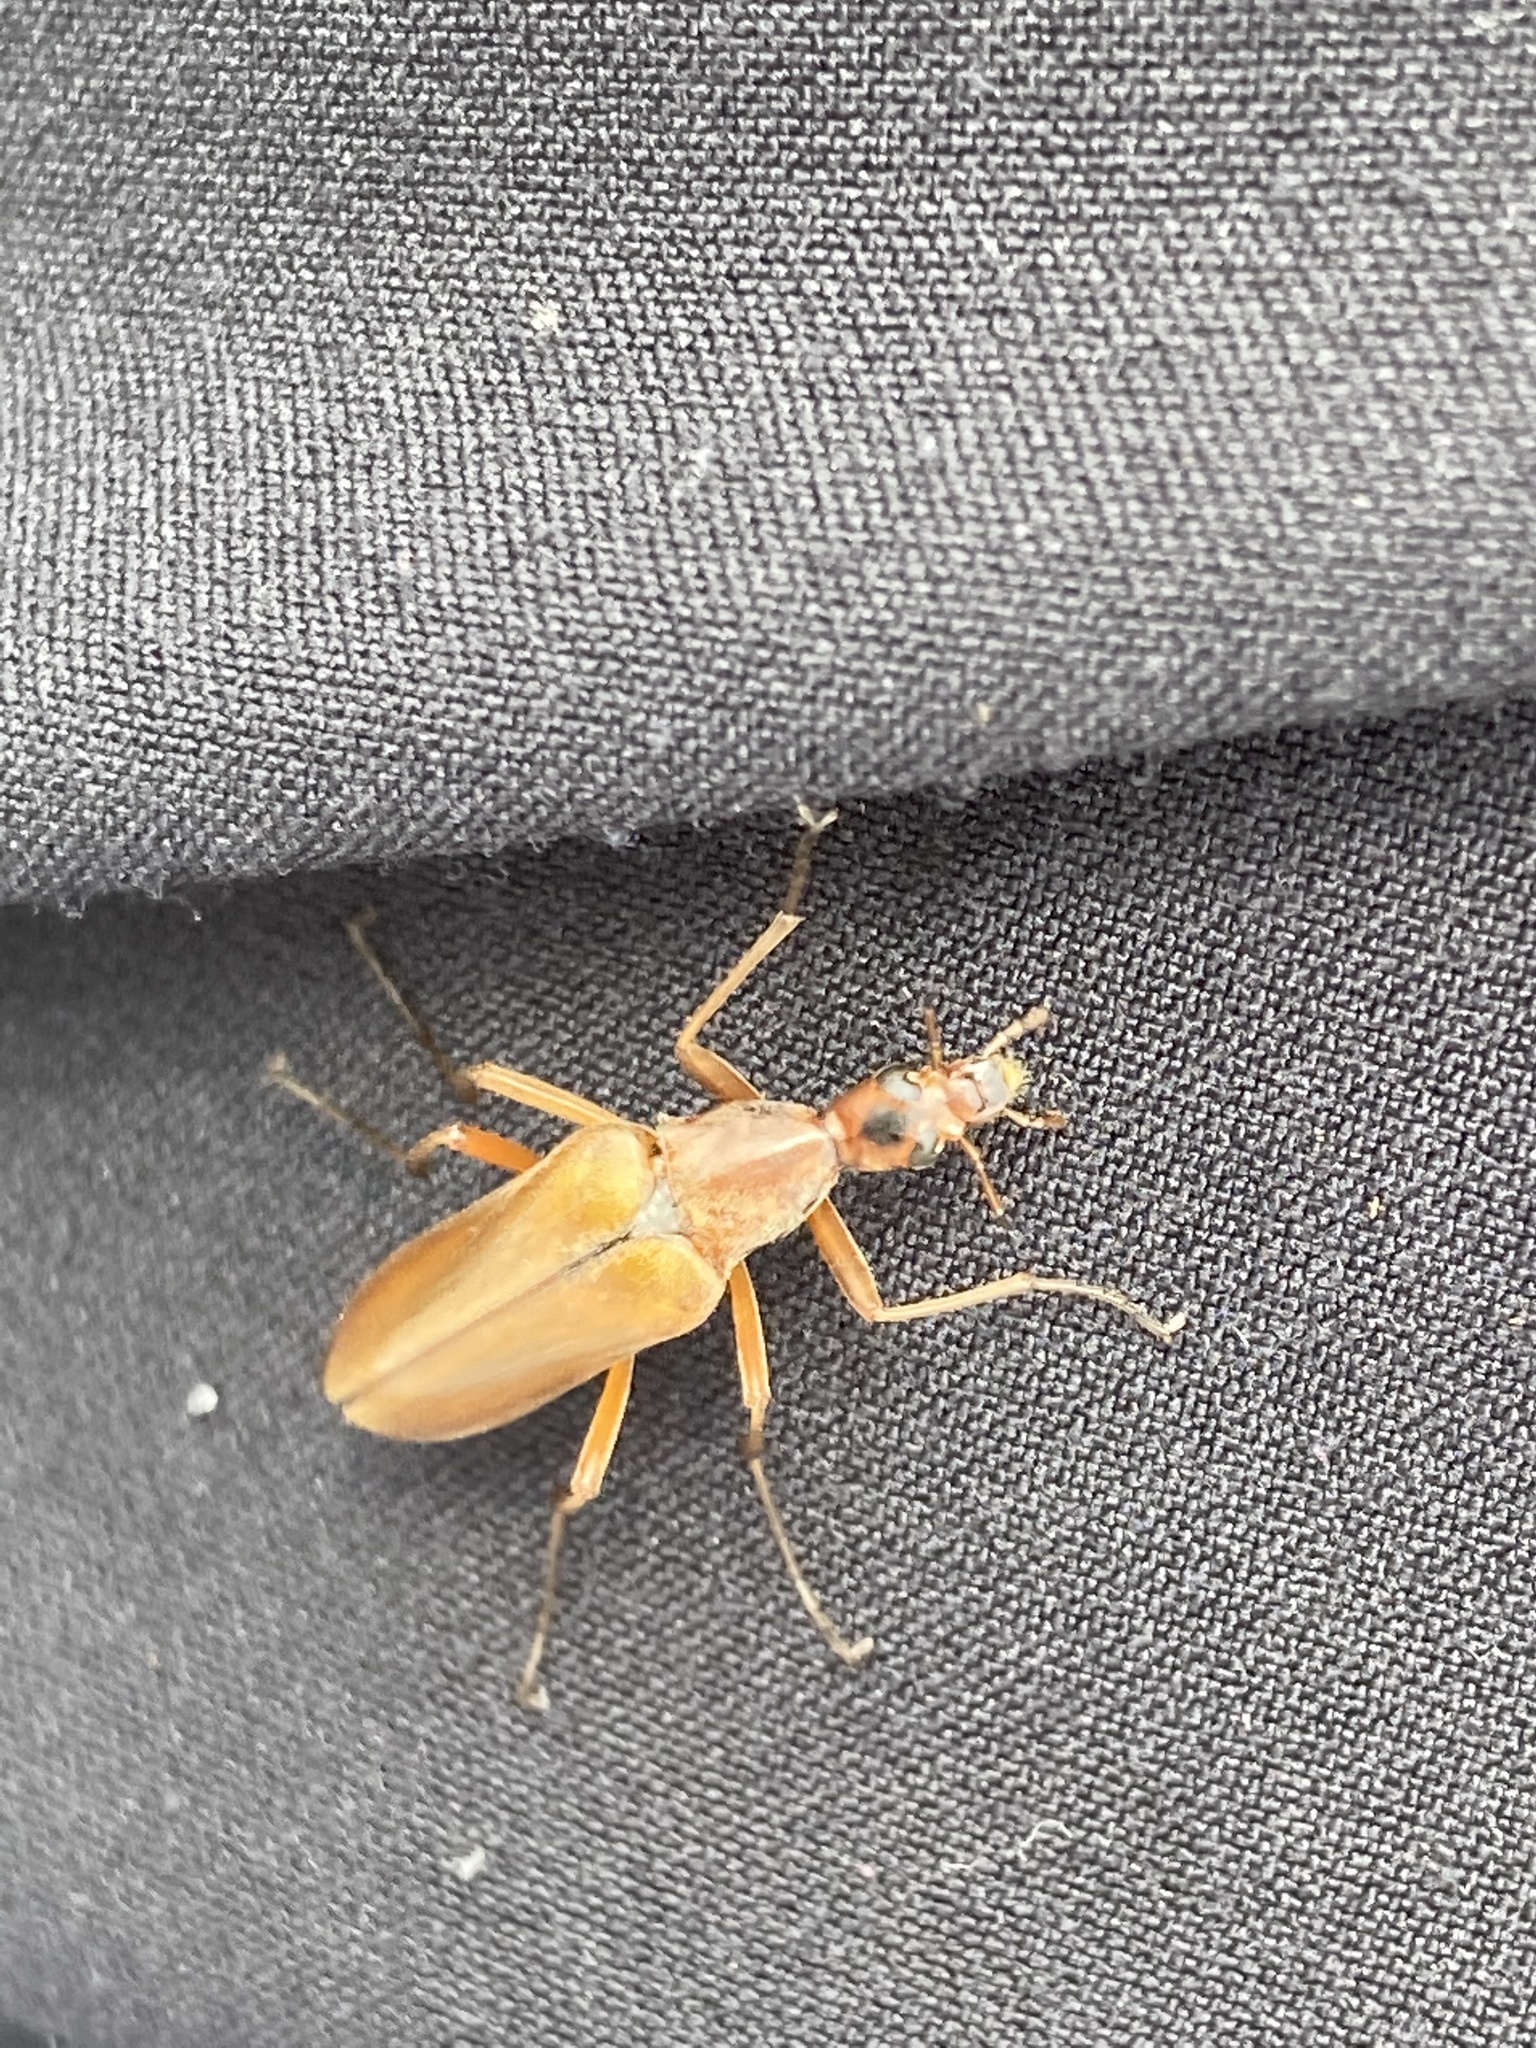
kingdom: Animalia
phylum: Arthropoda
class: Insecta
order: Coleoptera
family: Stenotrachelidae
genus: Cephaloon
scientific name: Cephaloon
